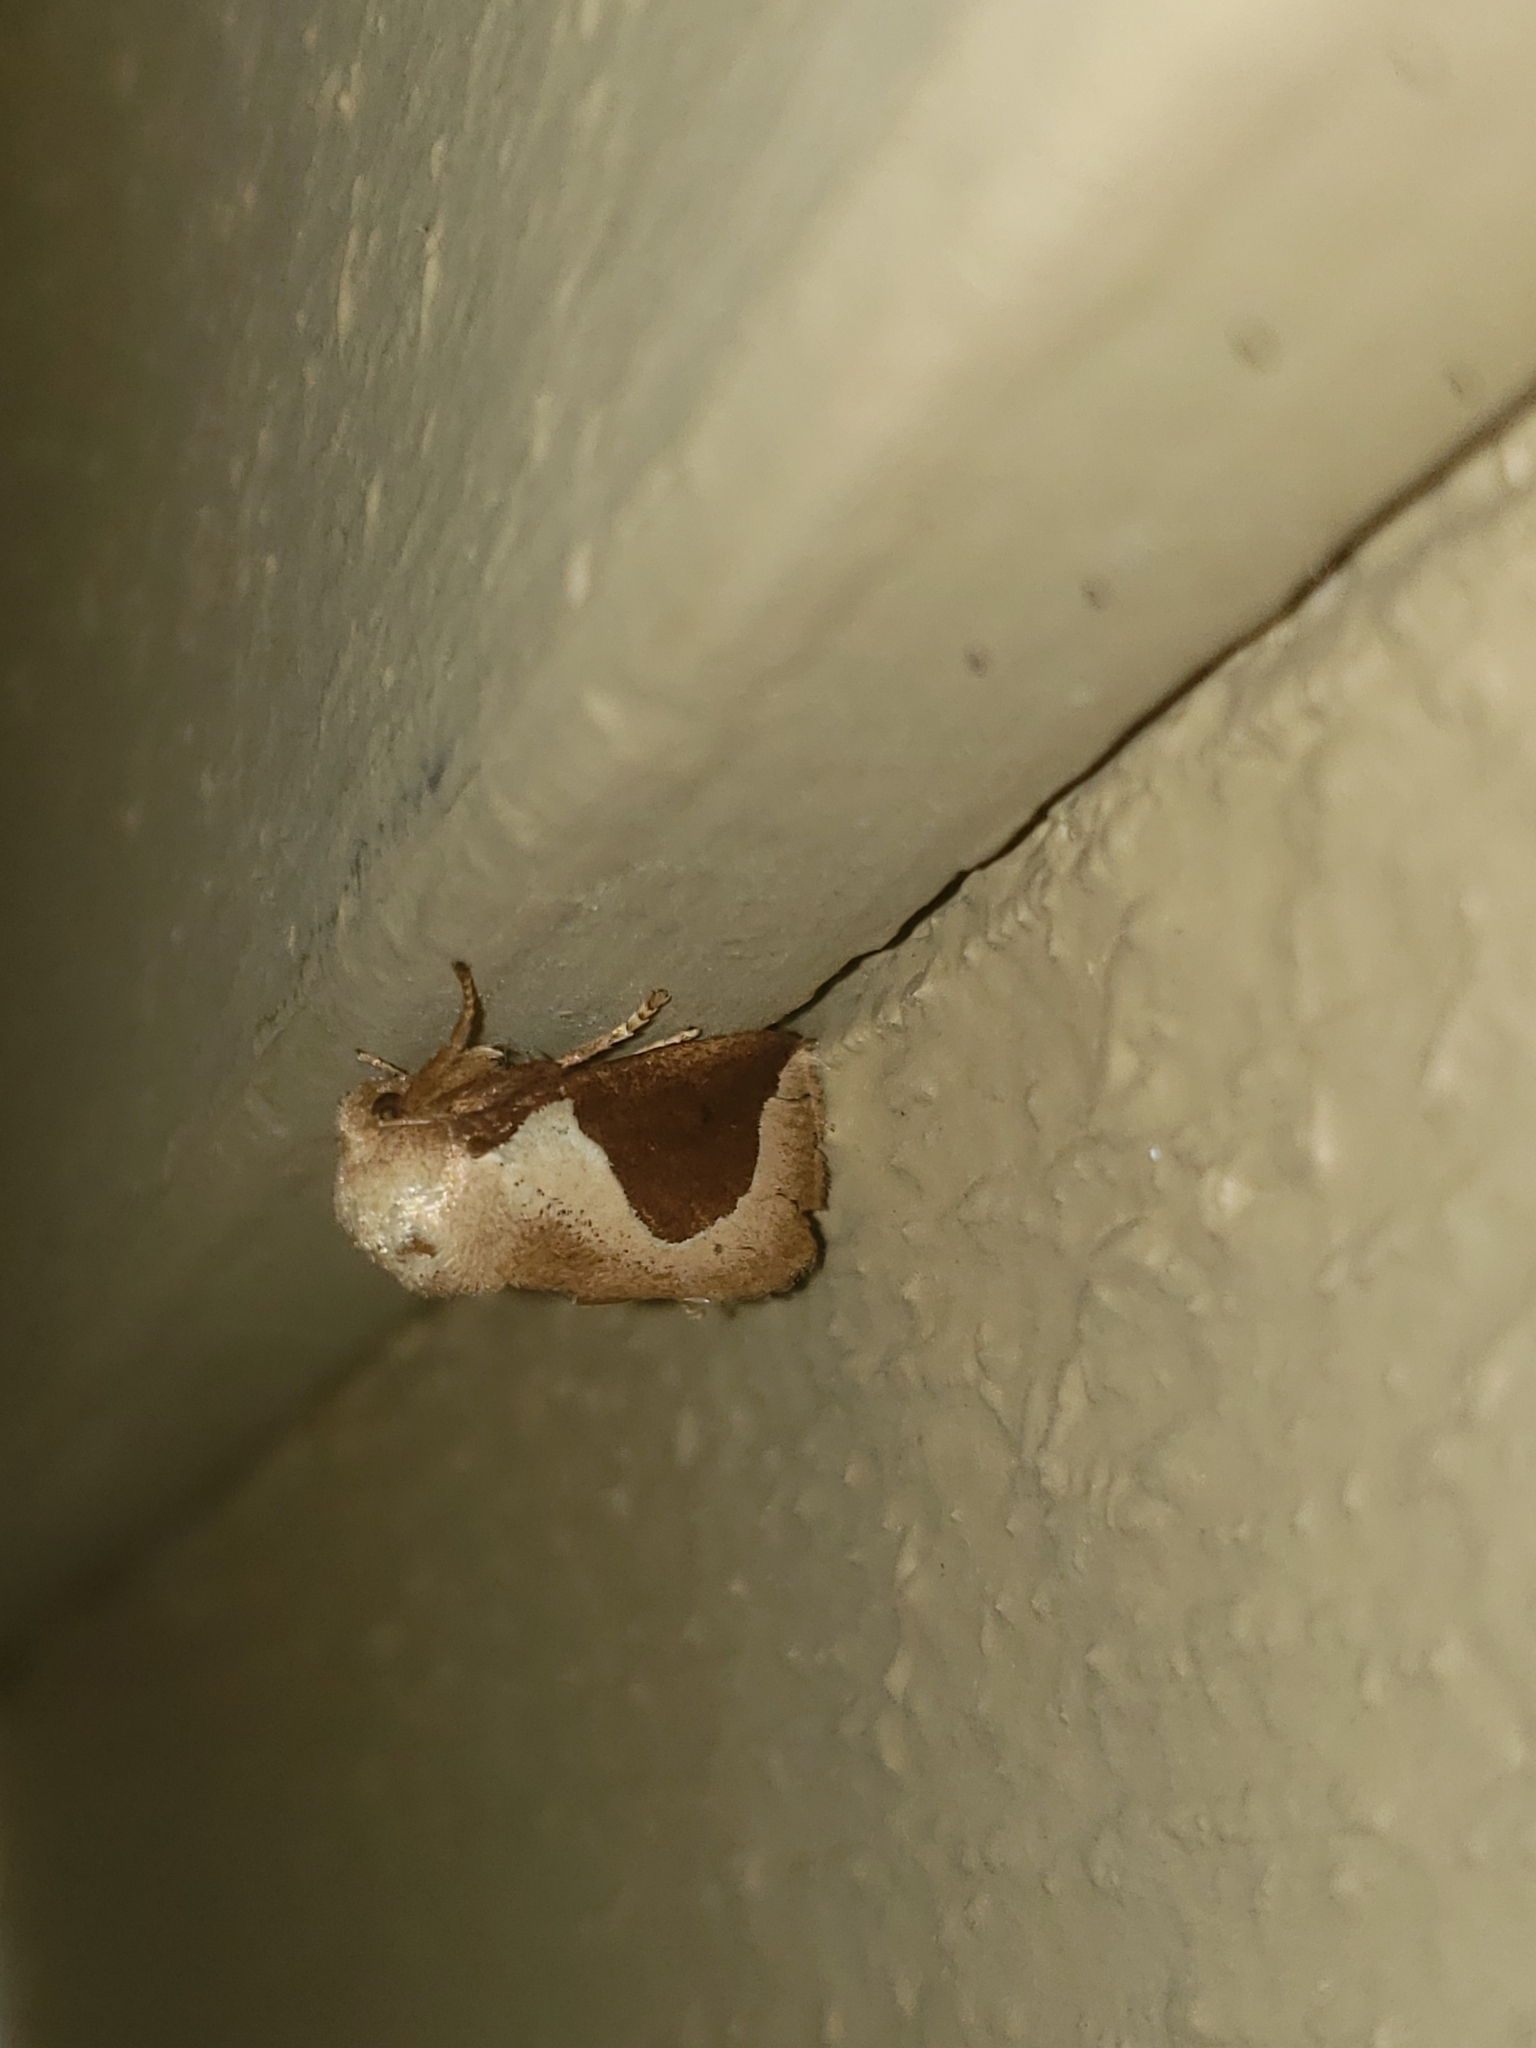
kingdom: Animalia
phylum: Arthropoda
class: Insecta
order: Lepidoptera
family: Limacodidae
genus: Prolimacodes
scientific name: Prolimacodes badia
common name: Skiff moth
